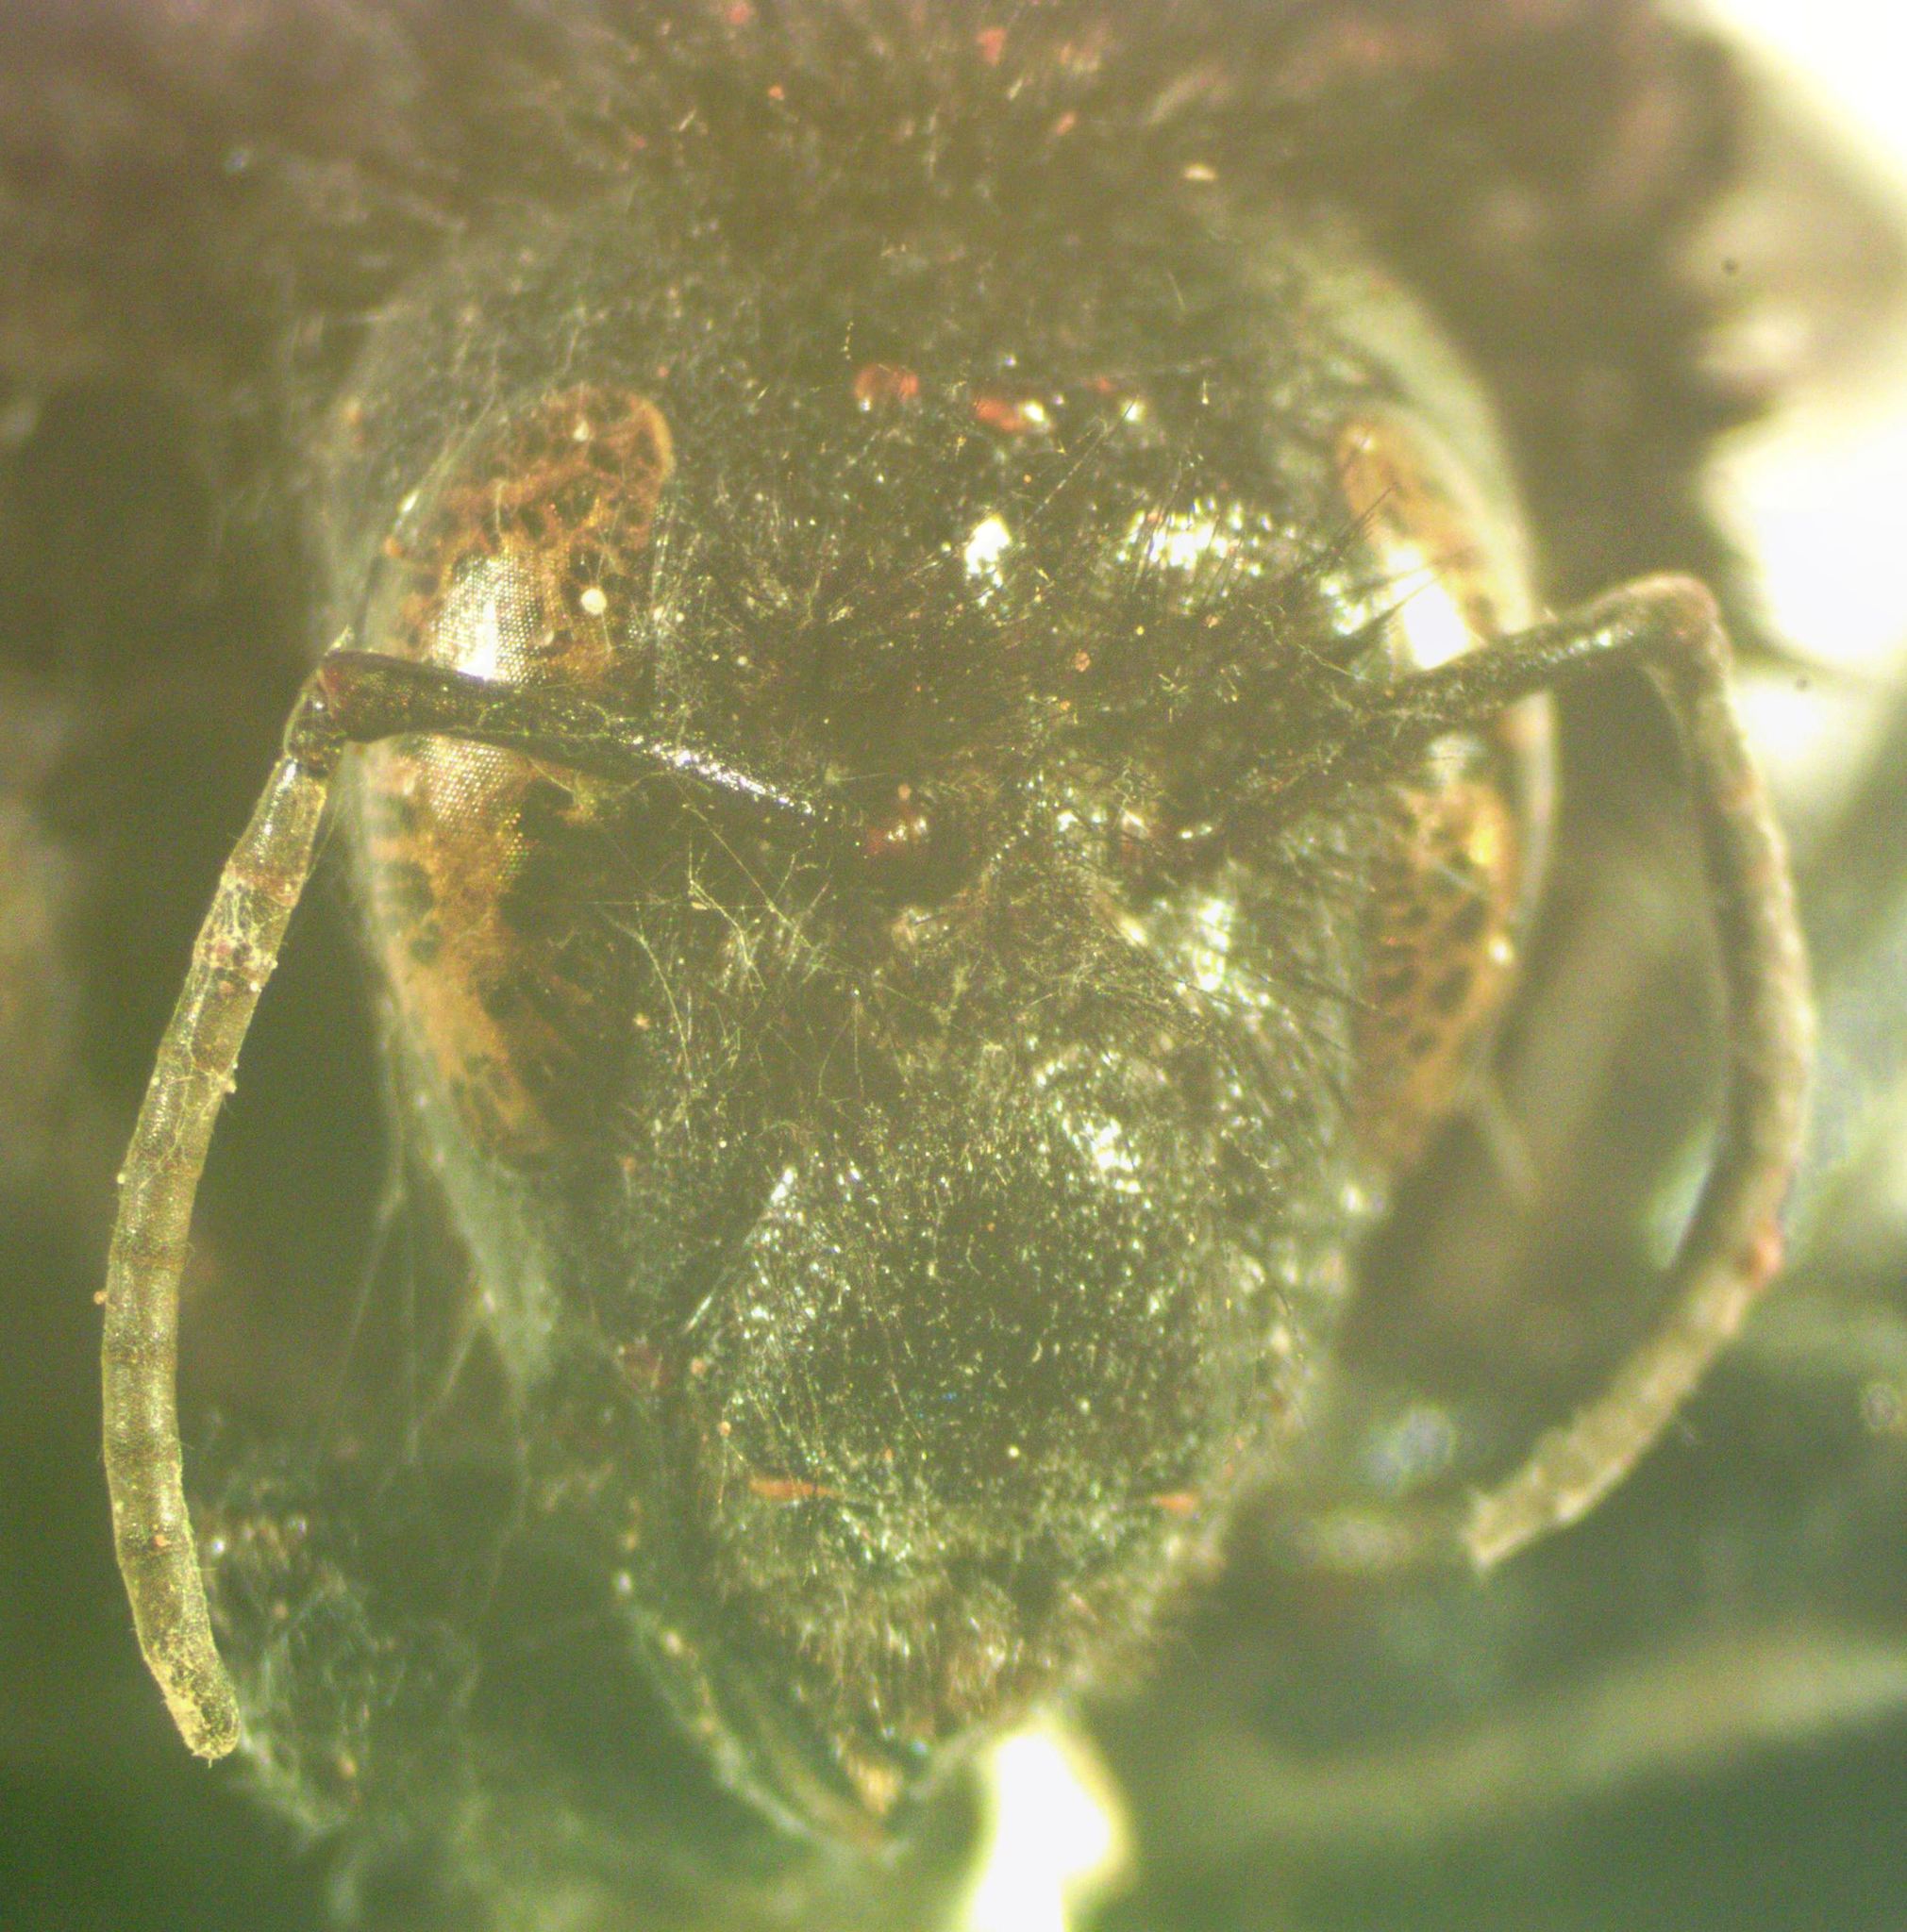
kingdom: Animalia
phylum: Arthropoda
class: Insecta
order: Hymenoptera
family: Apidae
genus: Bombus
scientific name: Bombus pullatus
